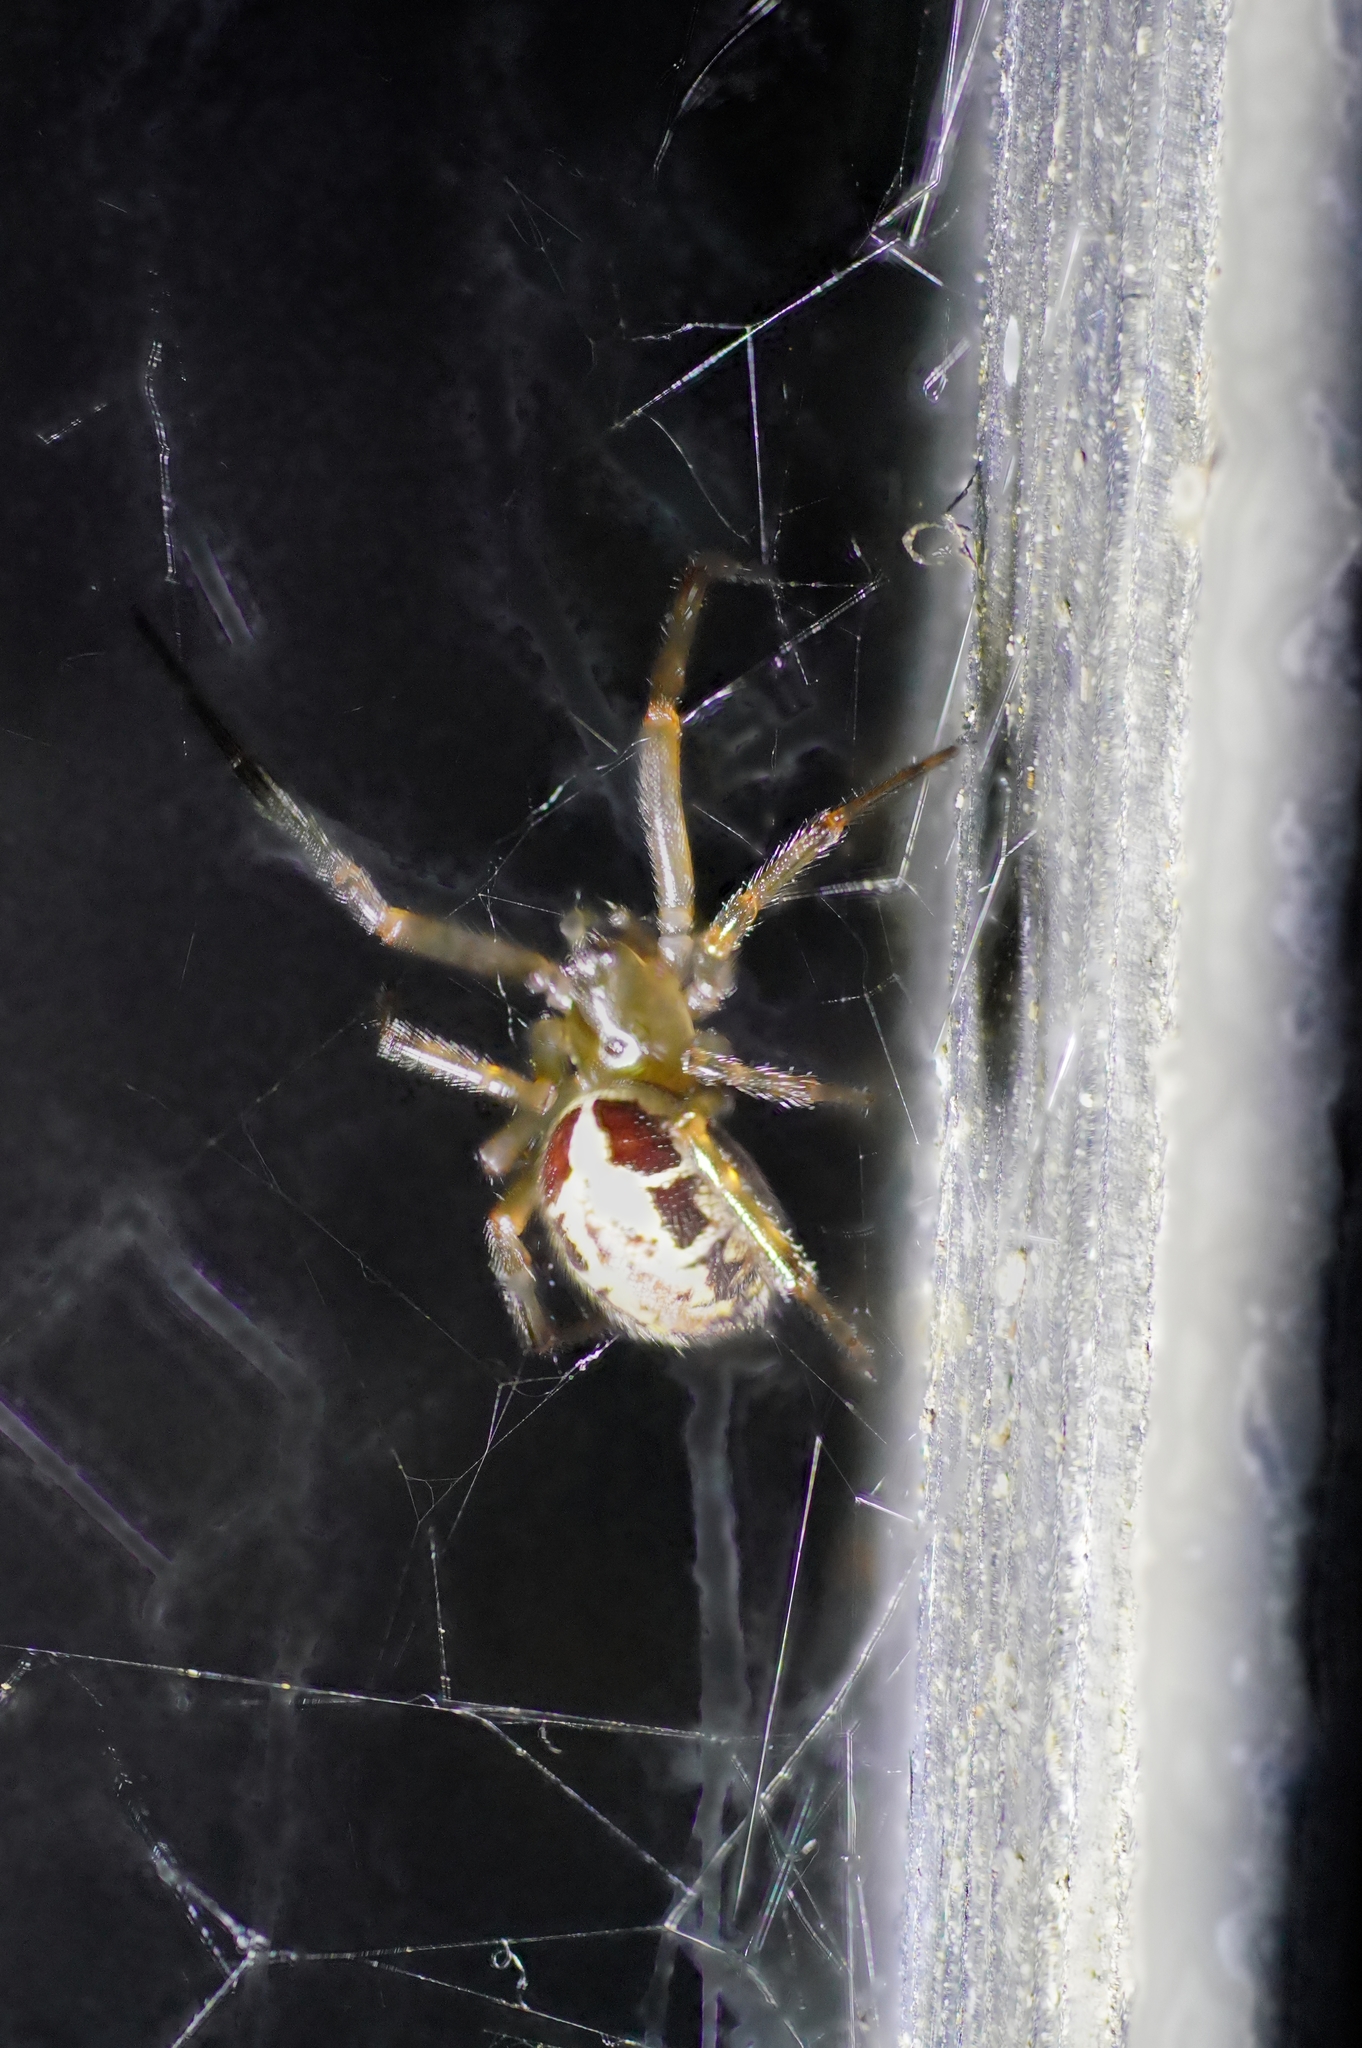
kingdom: Animalia
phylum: Arthropoda
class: Arachnida
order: Araneae
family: Theridiidae
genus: Steatoda
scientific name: Steatoda nobilis
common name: Cobweb weaver
